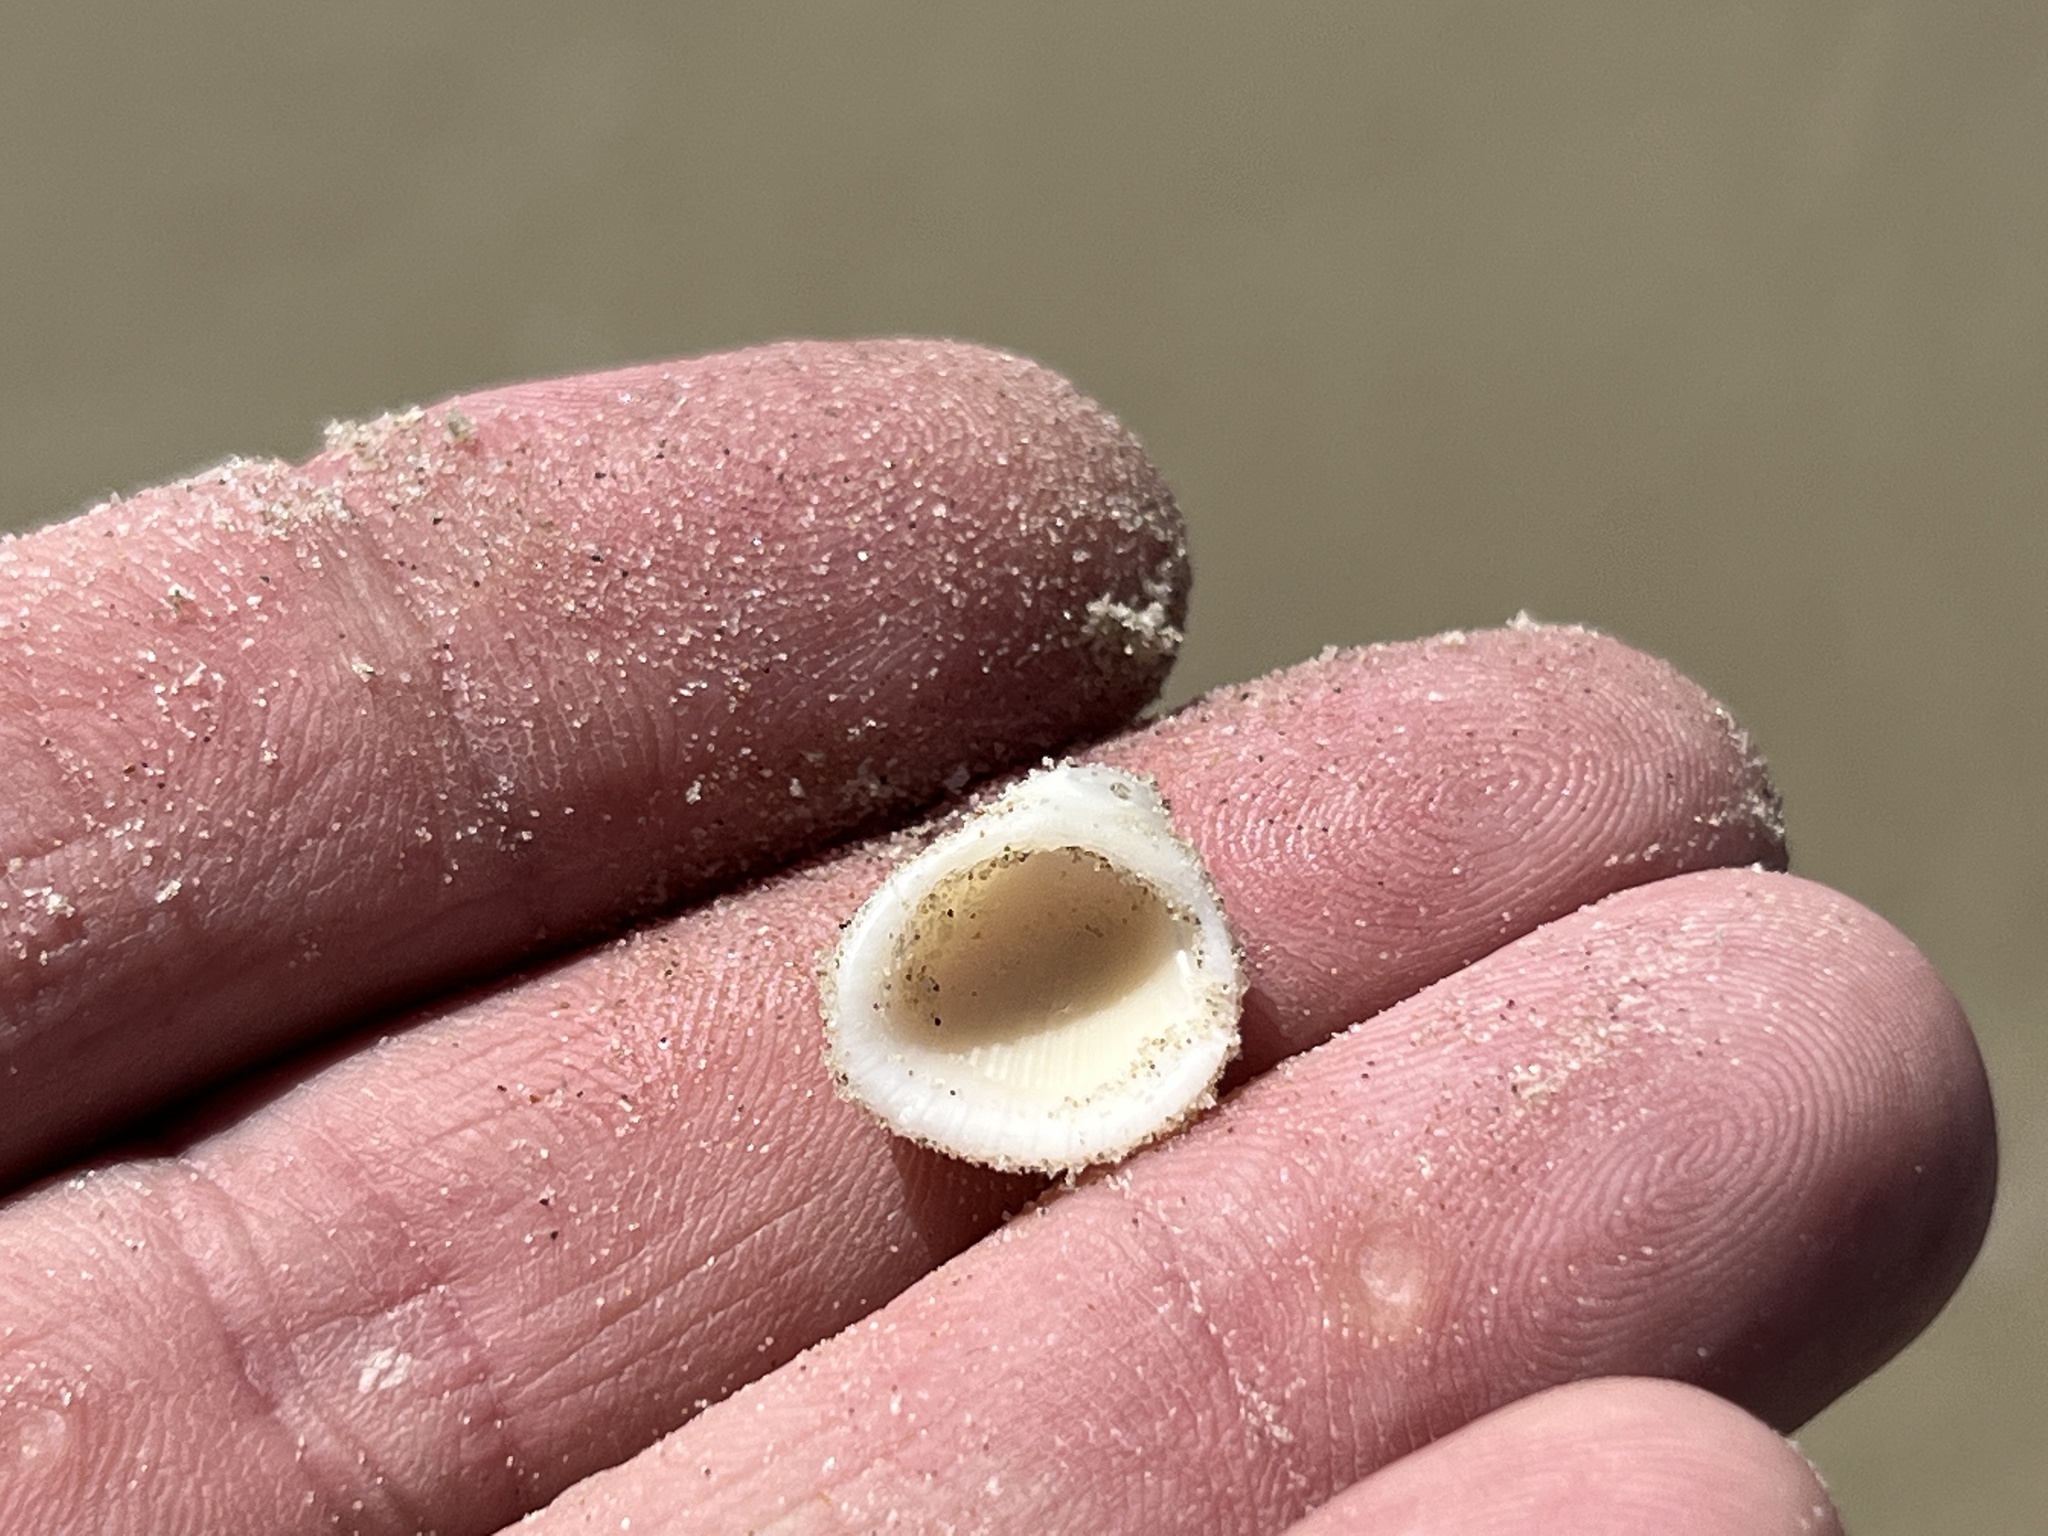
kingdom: Animalia
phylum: Mollusca
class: Bivalvia
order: Arcida
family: Arcidae
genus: Anadara
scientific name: Anadara chemnitzii
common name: Chemnitz's triangular ark
